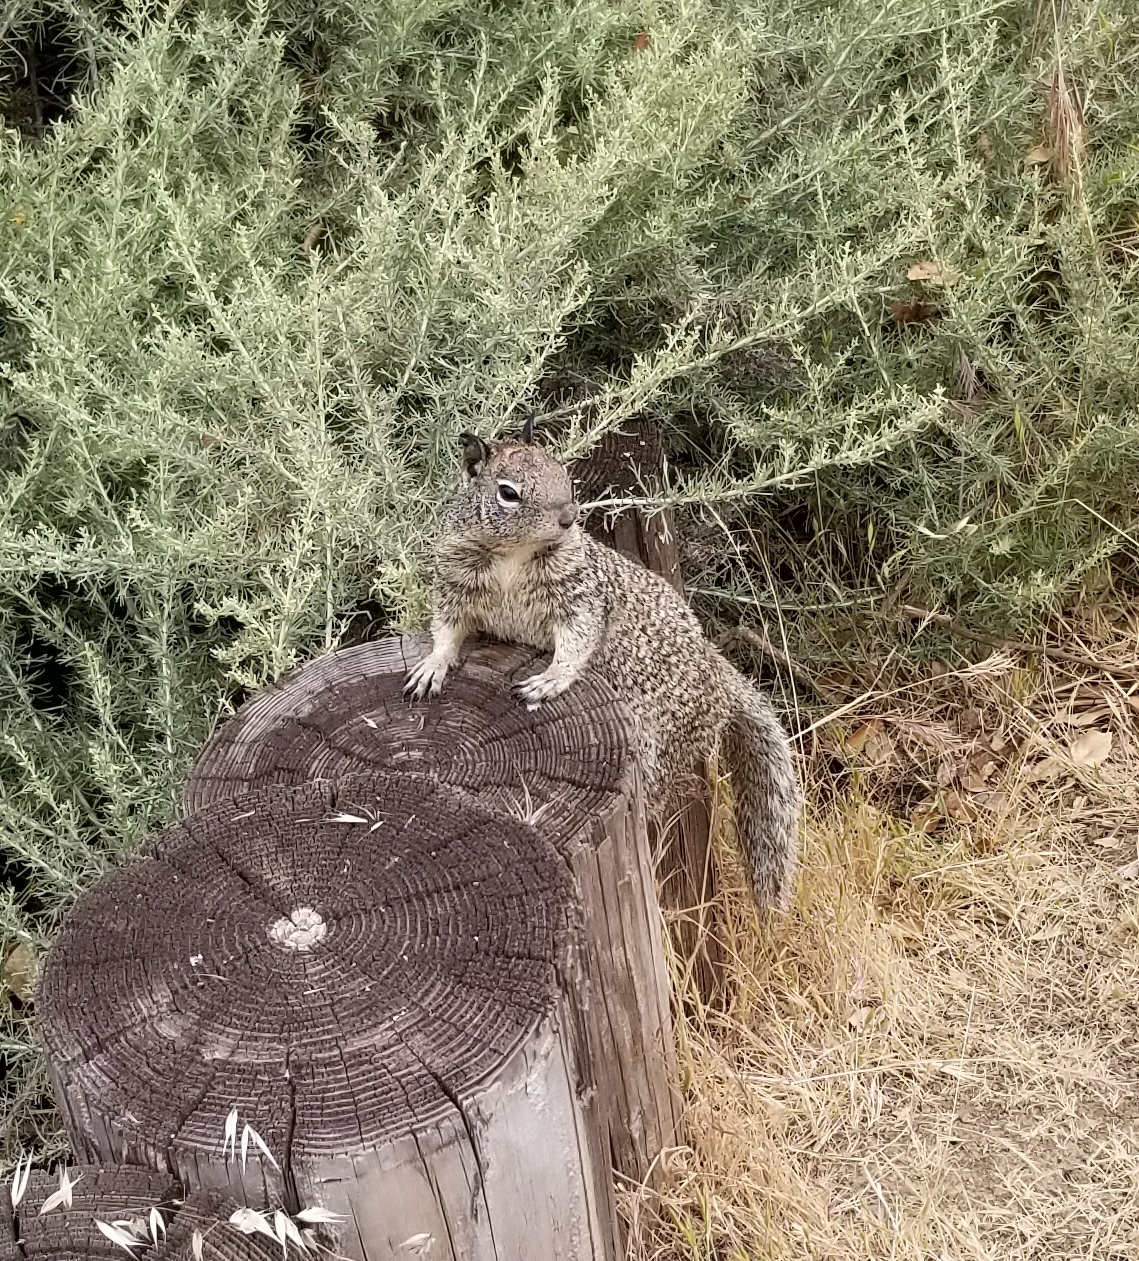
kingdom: Animalia
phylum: Chordata
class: Mammalia
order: Rodentia
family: Sciuridae
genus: Otospermophilus
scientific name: Otospermophilus beecheyi
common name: California ground squirrel
